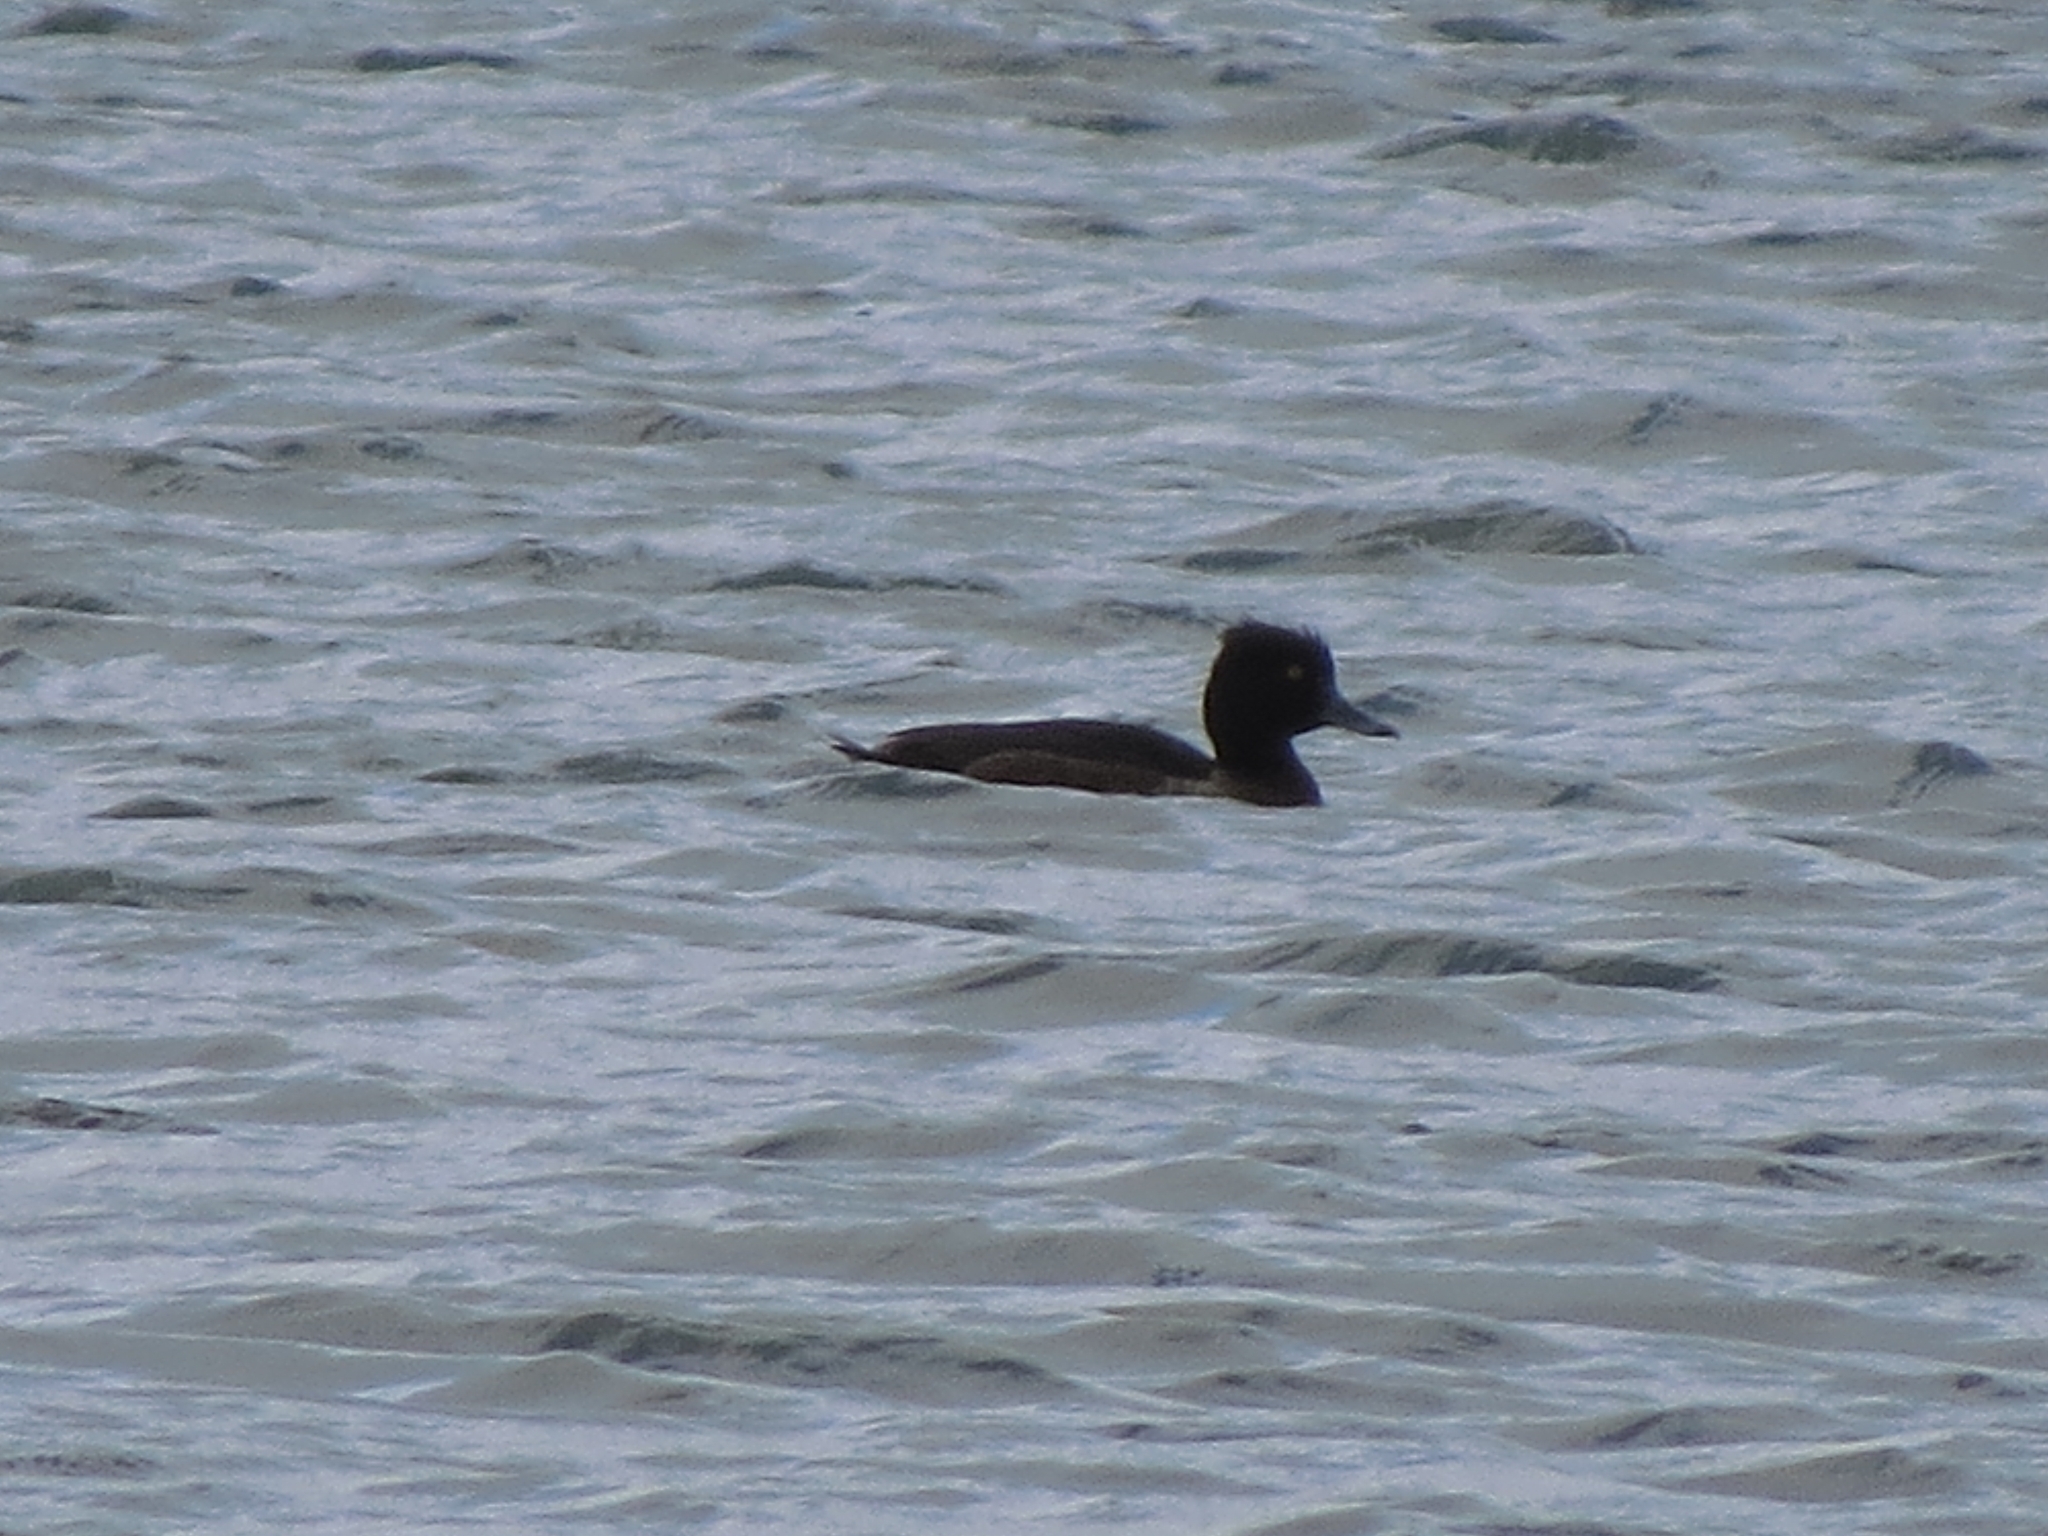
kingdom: Animalia
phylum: Chordata
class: Aves
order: Anseriformes
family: Anatidae
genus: Aythya
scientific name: Aythya fuligula
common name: Tufted duck
